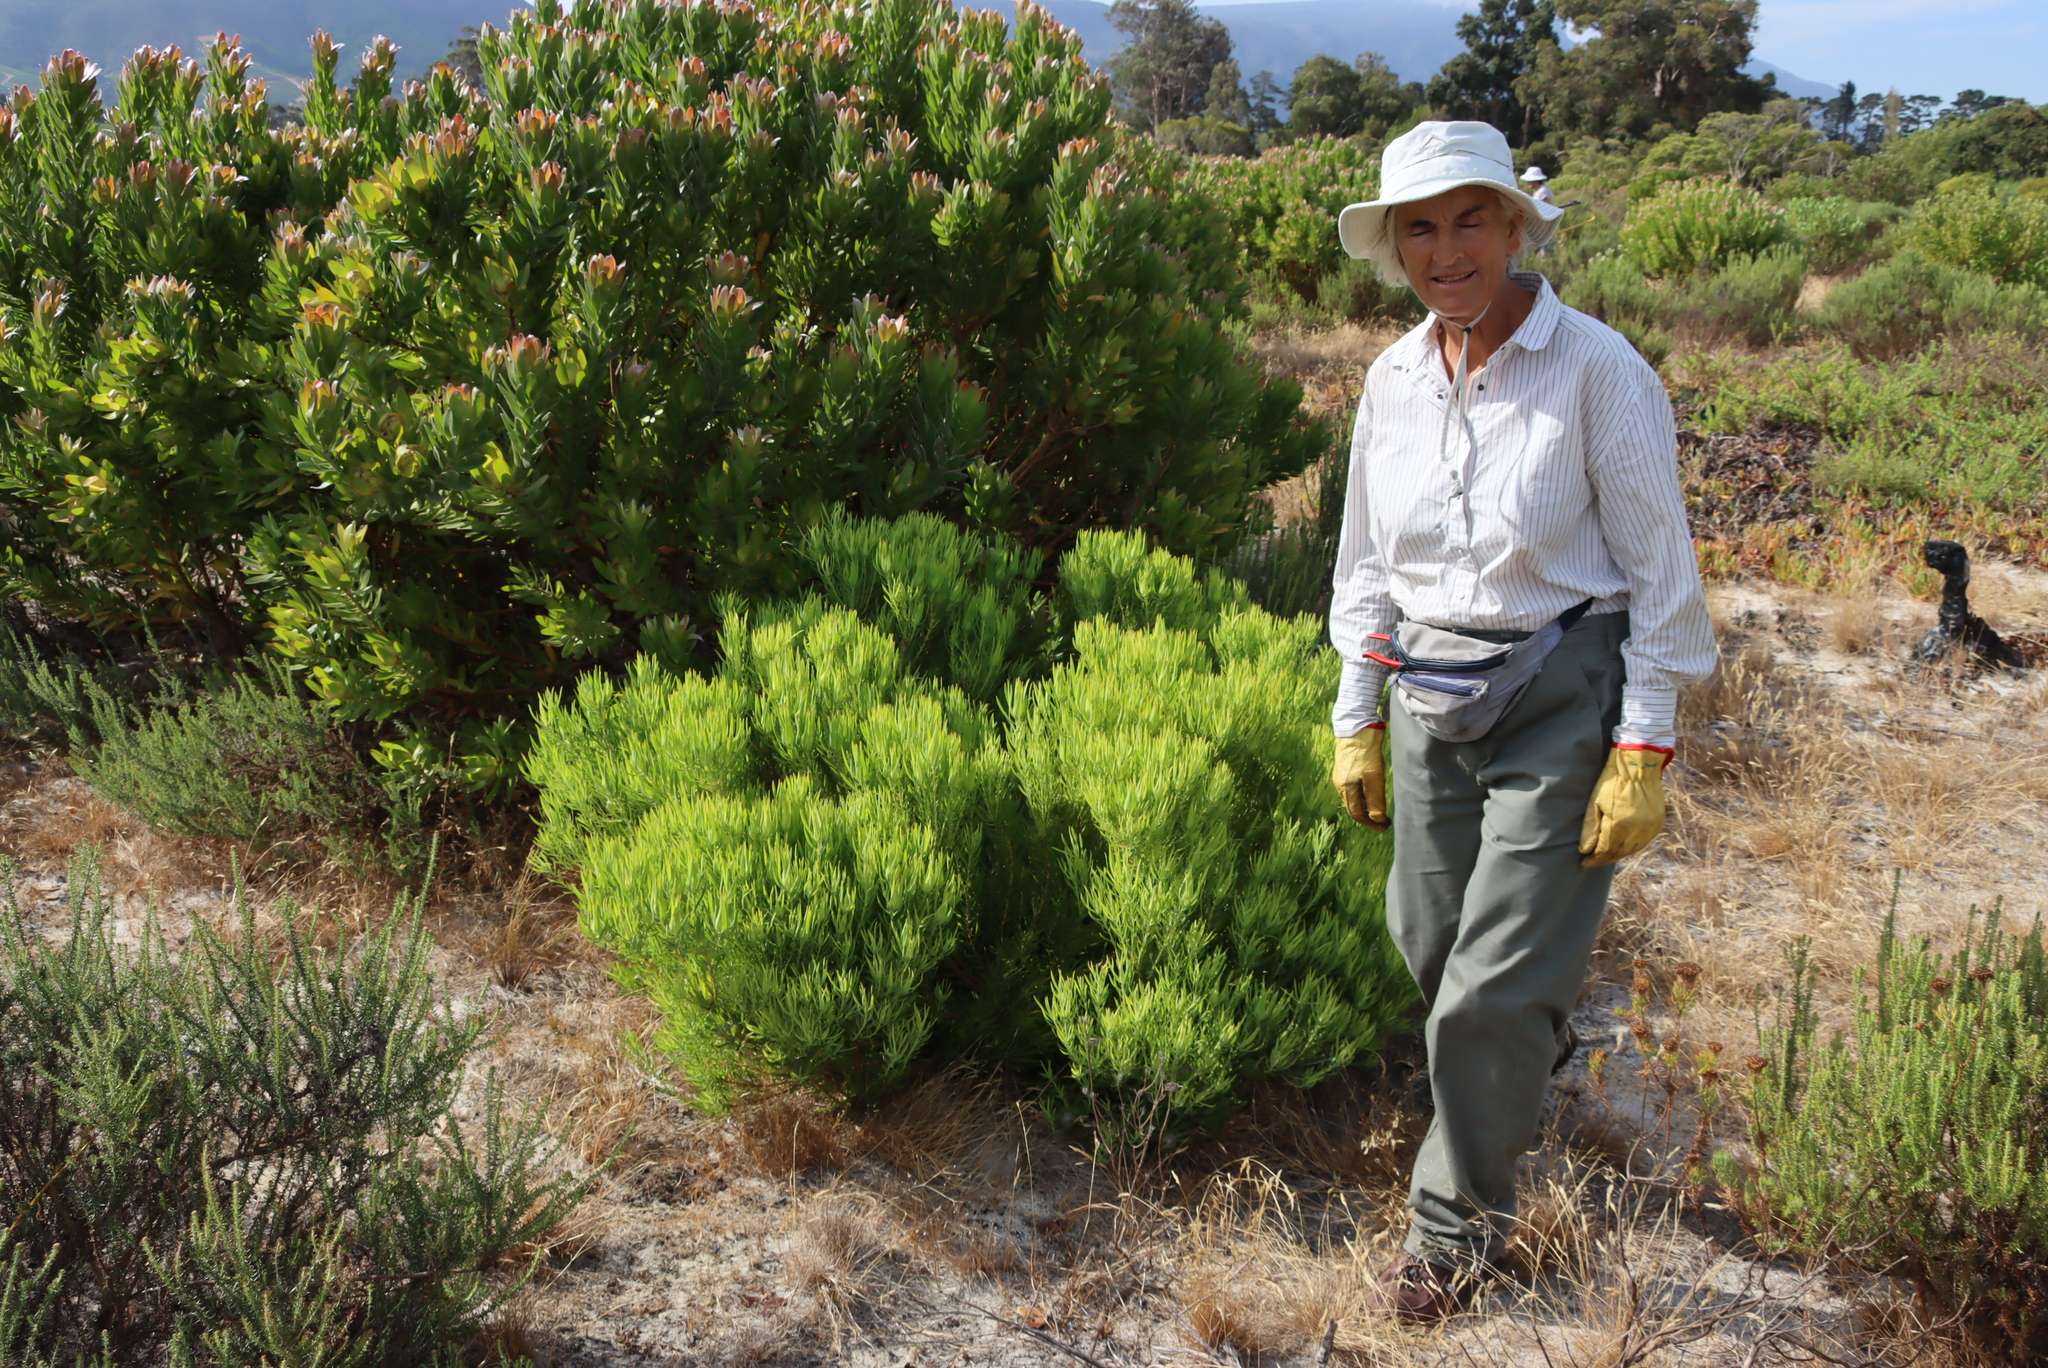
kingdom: Plantae
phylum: Tracheophyta
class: Magnoliopsida
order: Proteales
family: Proteaceae
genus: Leucadendron
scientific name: Leucadendron salignum
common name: Common sunshine conebush
